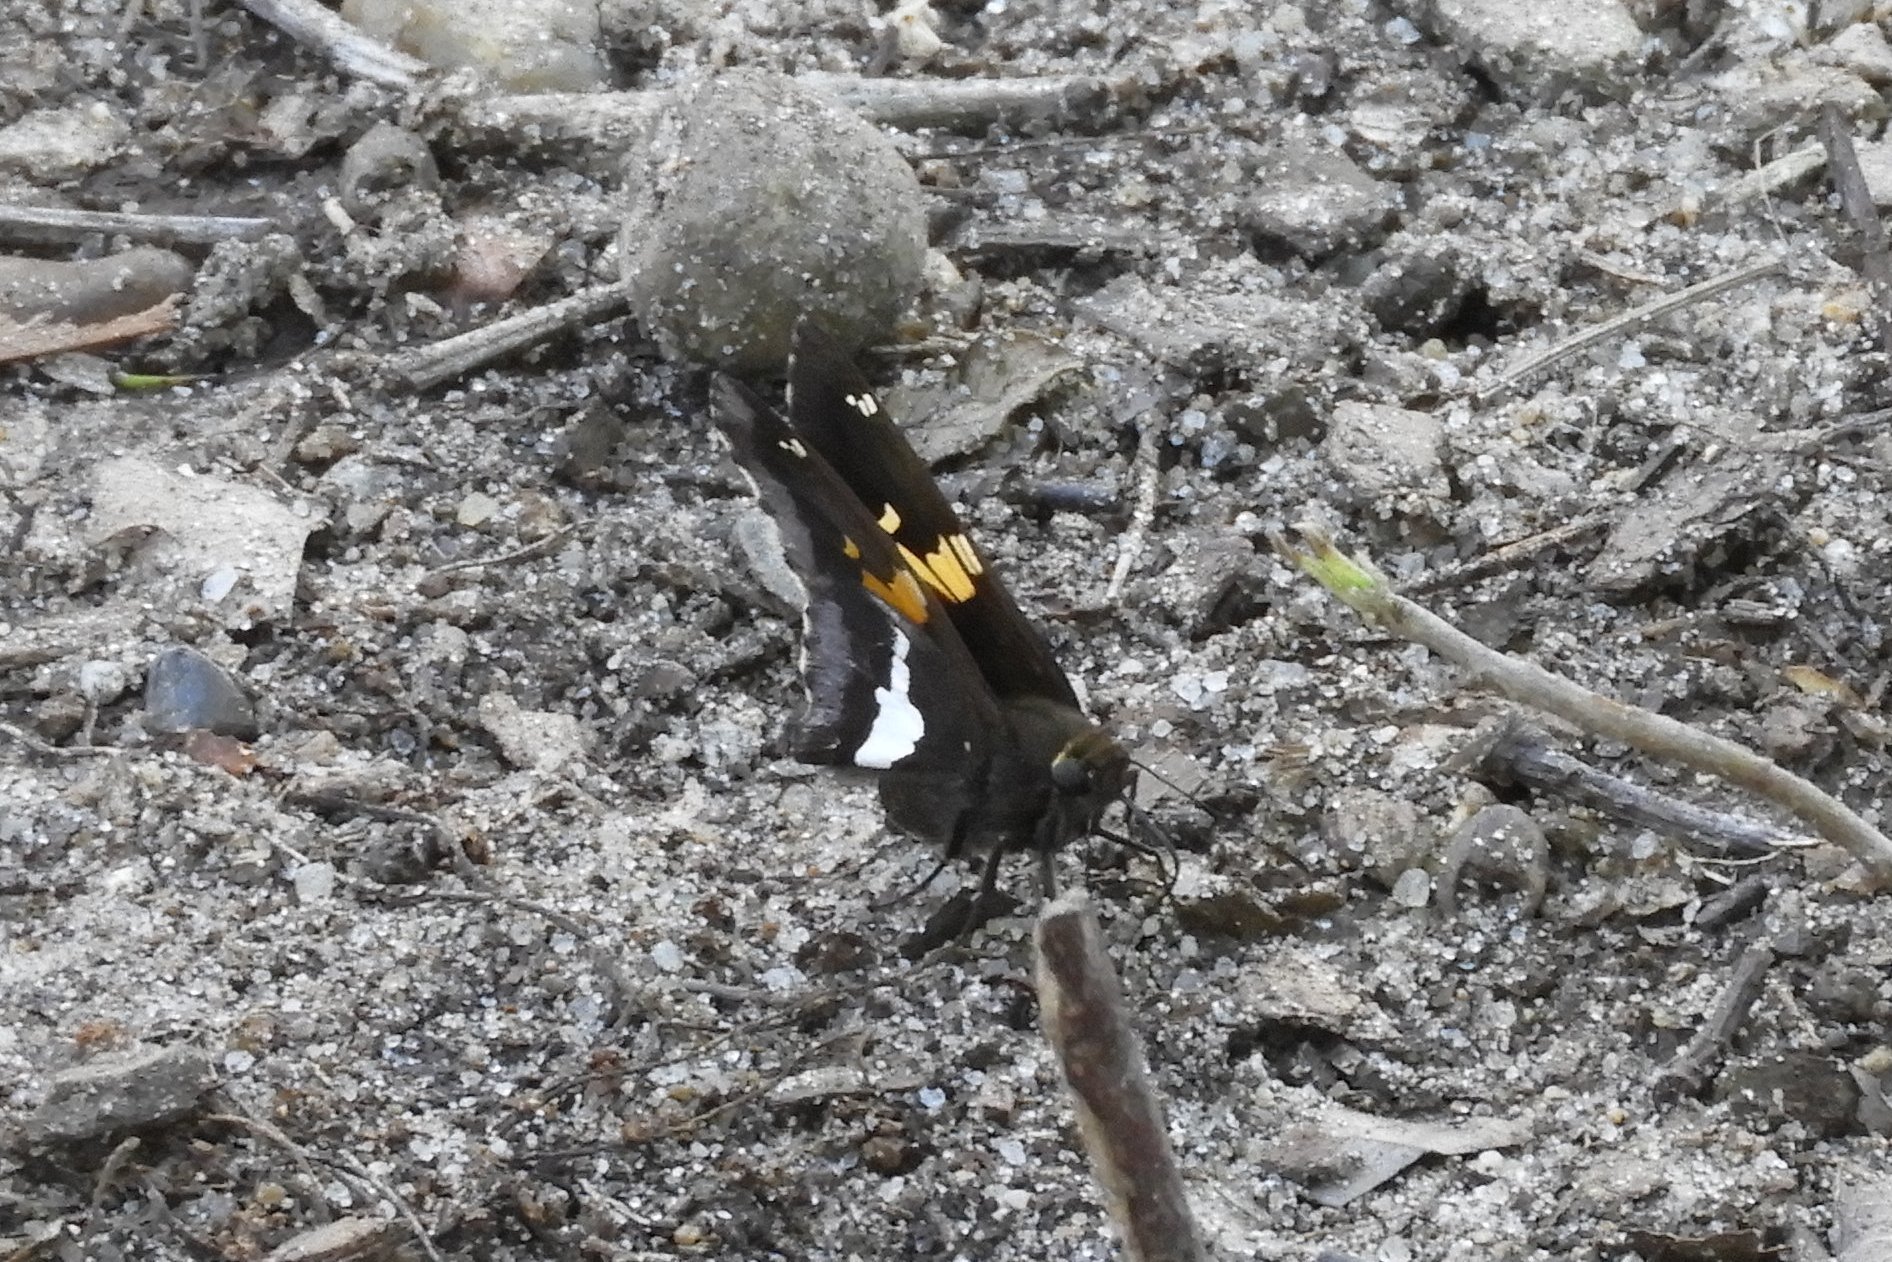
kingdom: Animalia
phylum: Arthropoda
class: Insecta
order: Lepidoptera
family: Hesperiidae
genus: Epargyreus
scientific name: Epargyreus clarus
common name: Silver-spotted skipper
